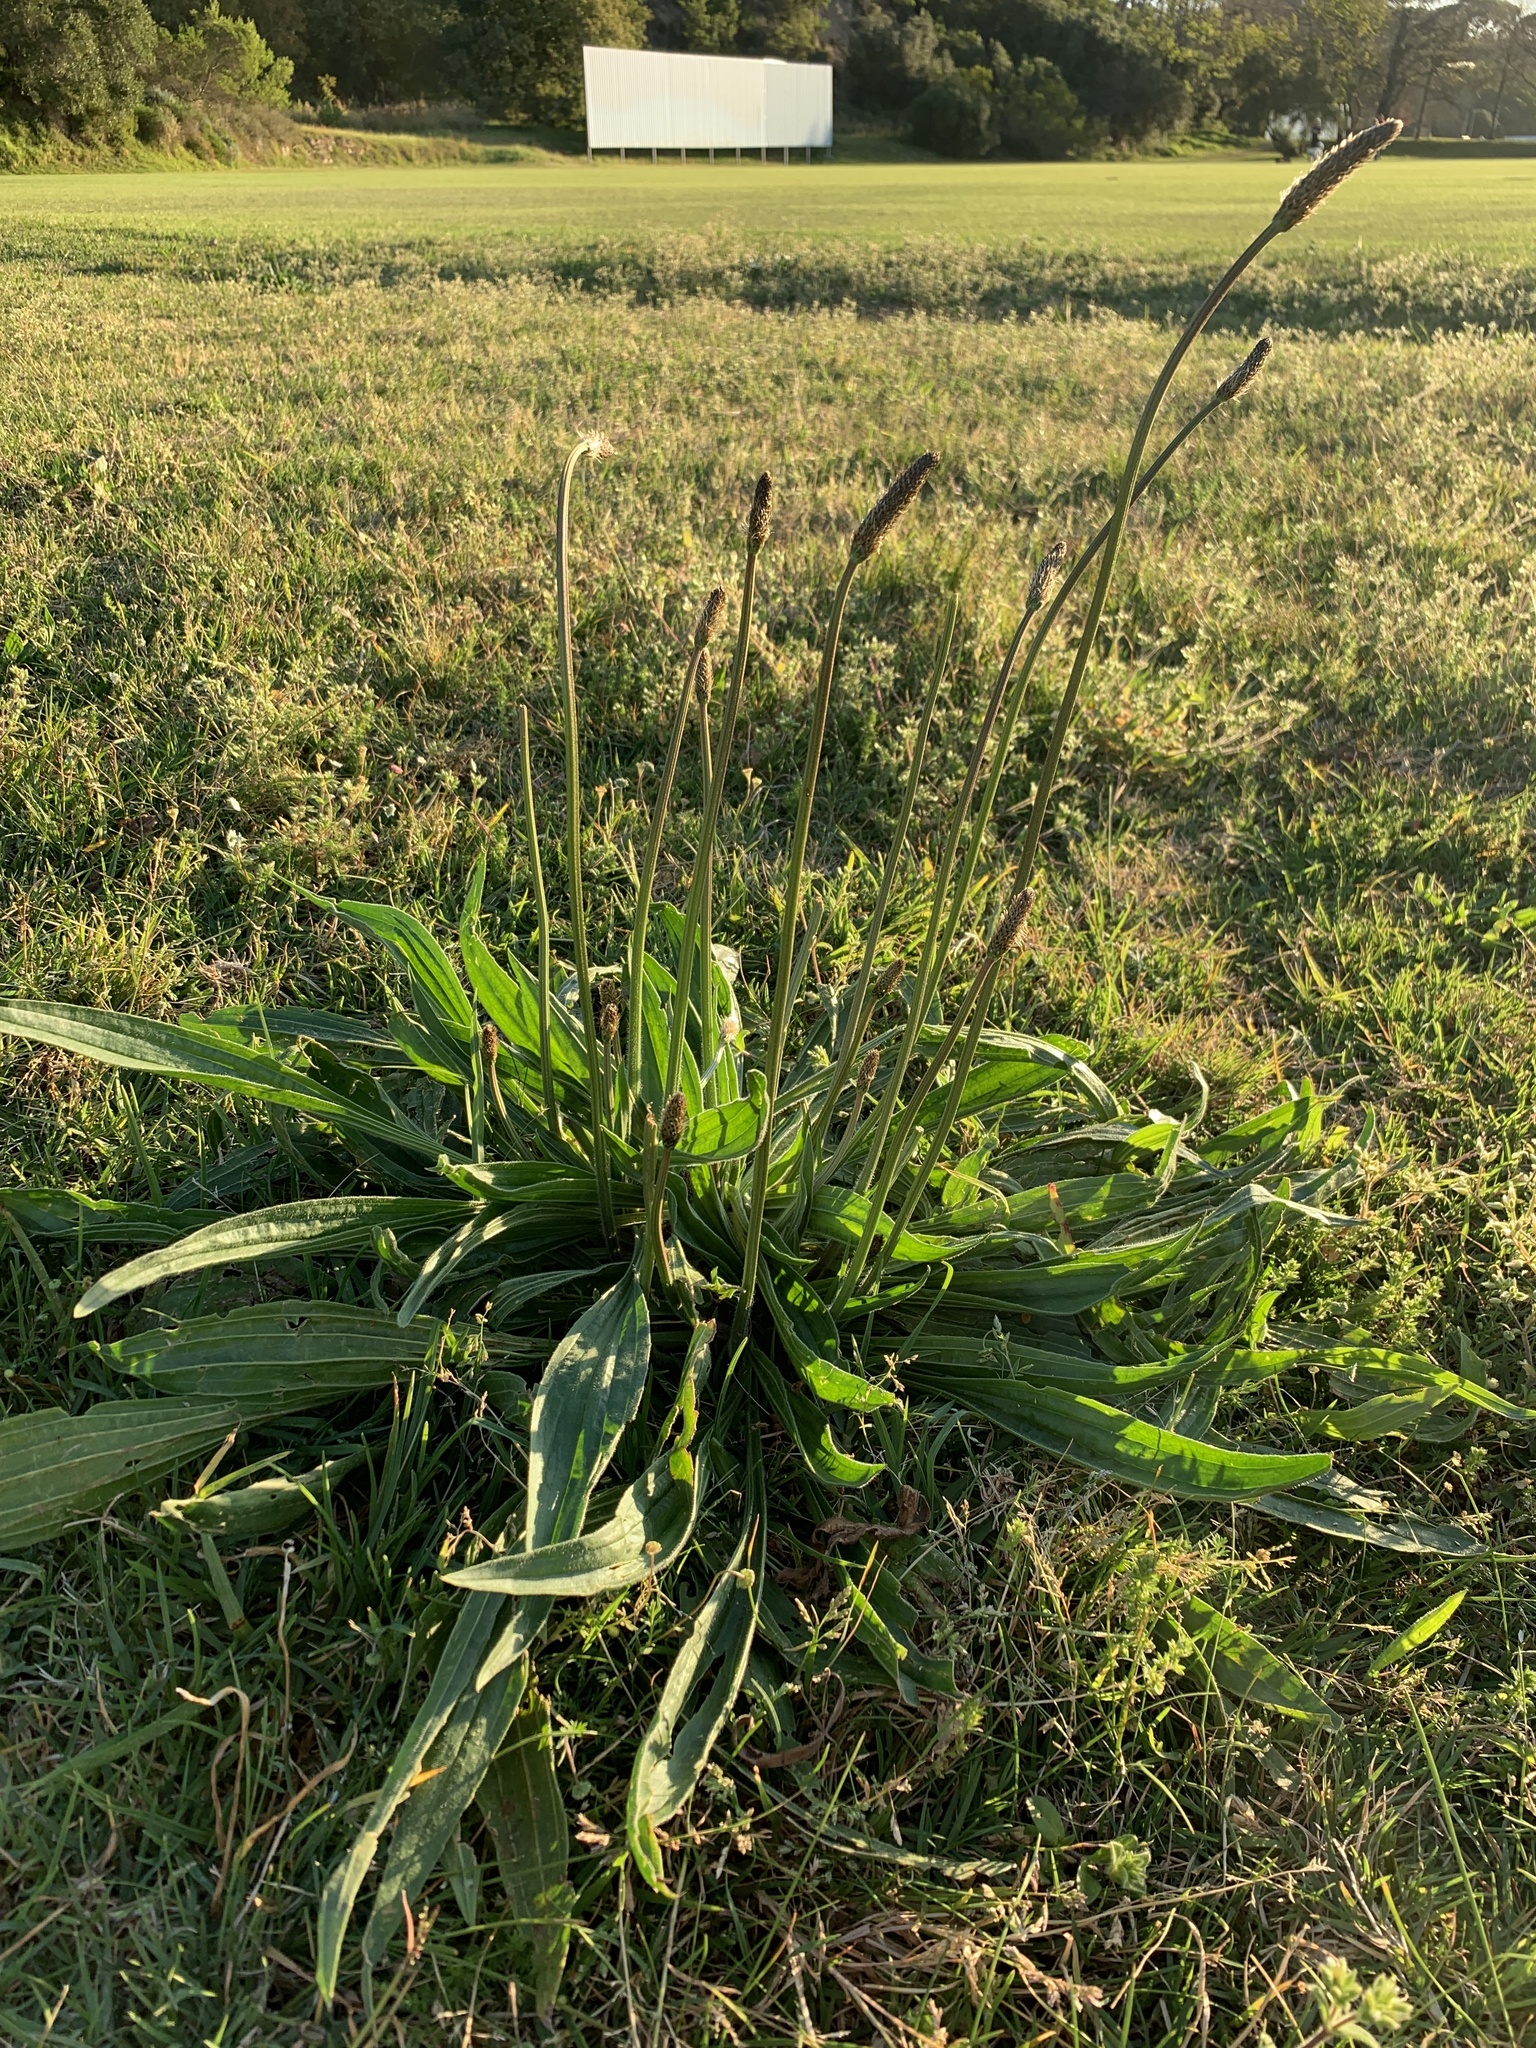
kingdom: Plantae
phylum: Tracheophyta
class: Magnoliopsida
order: Lamiales
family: Plantaginaceae
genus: Plantago
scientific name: Plantago lanceolata
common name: Ribwort plantain
